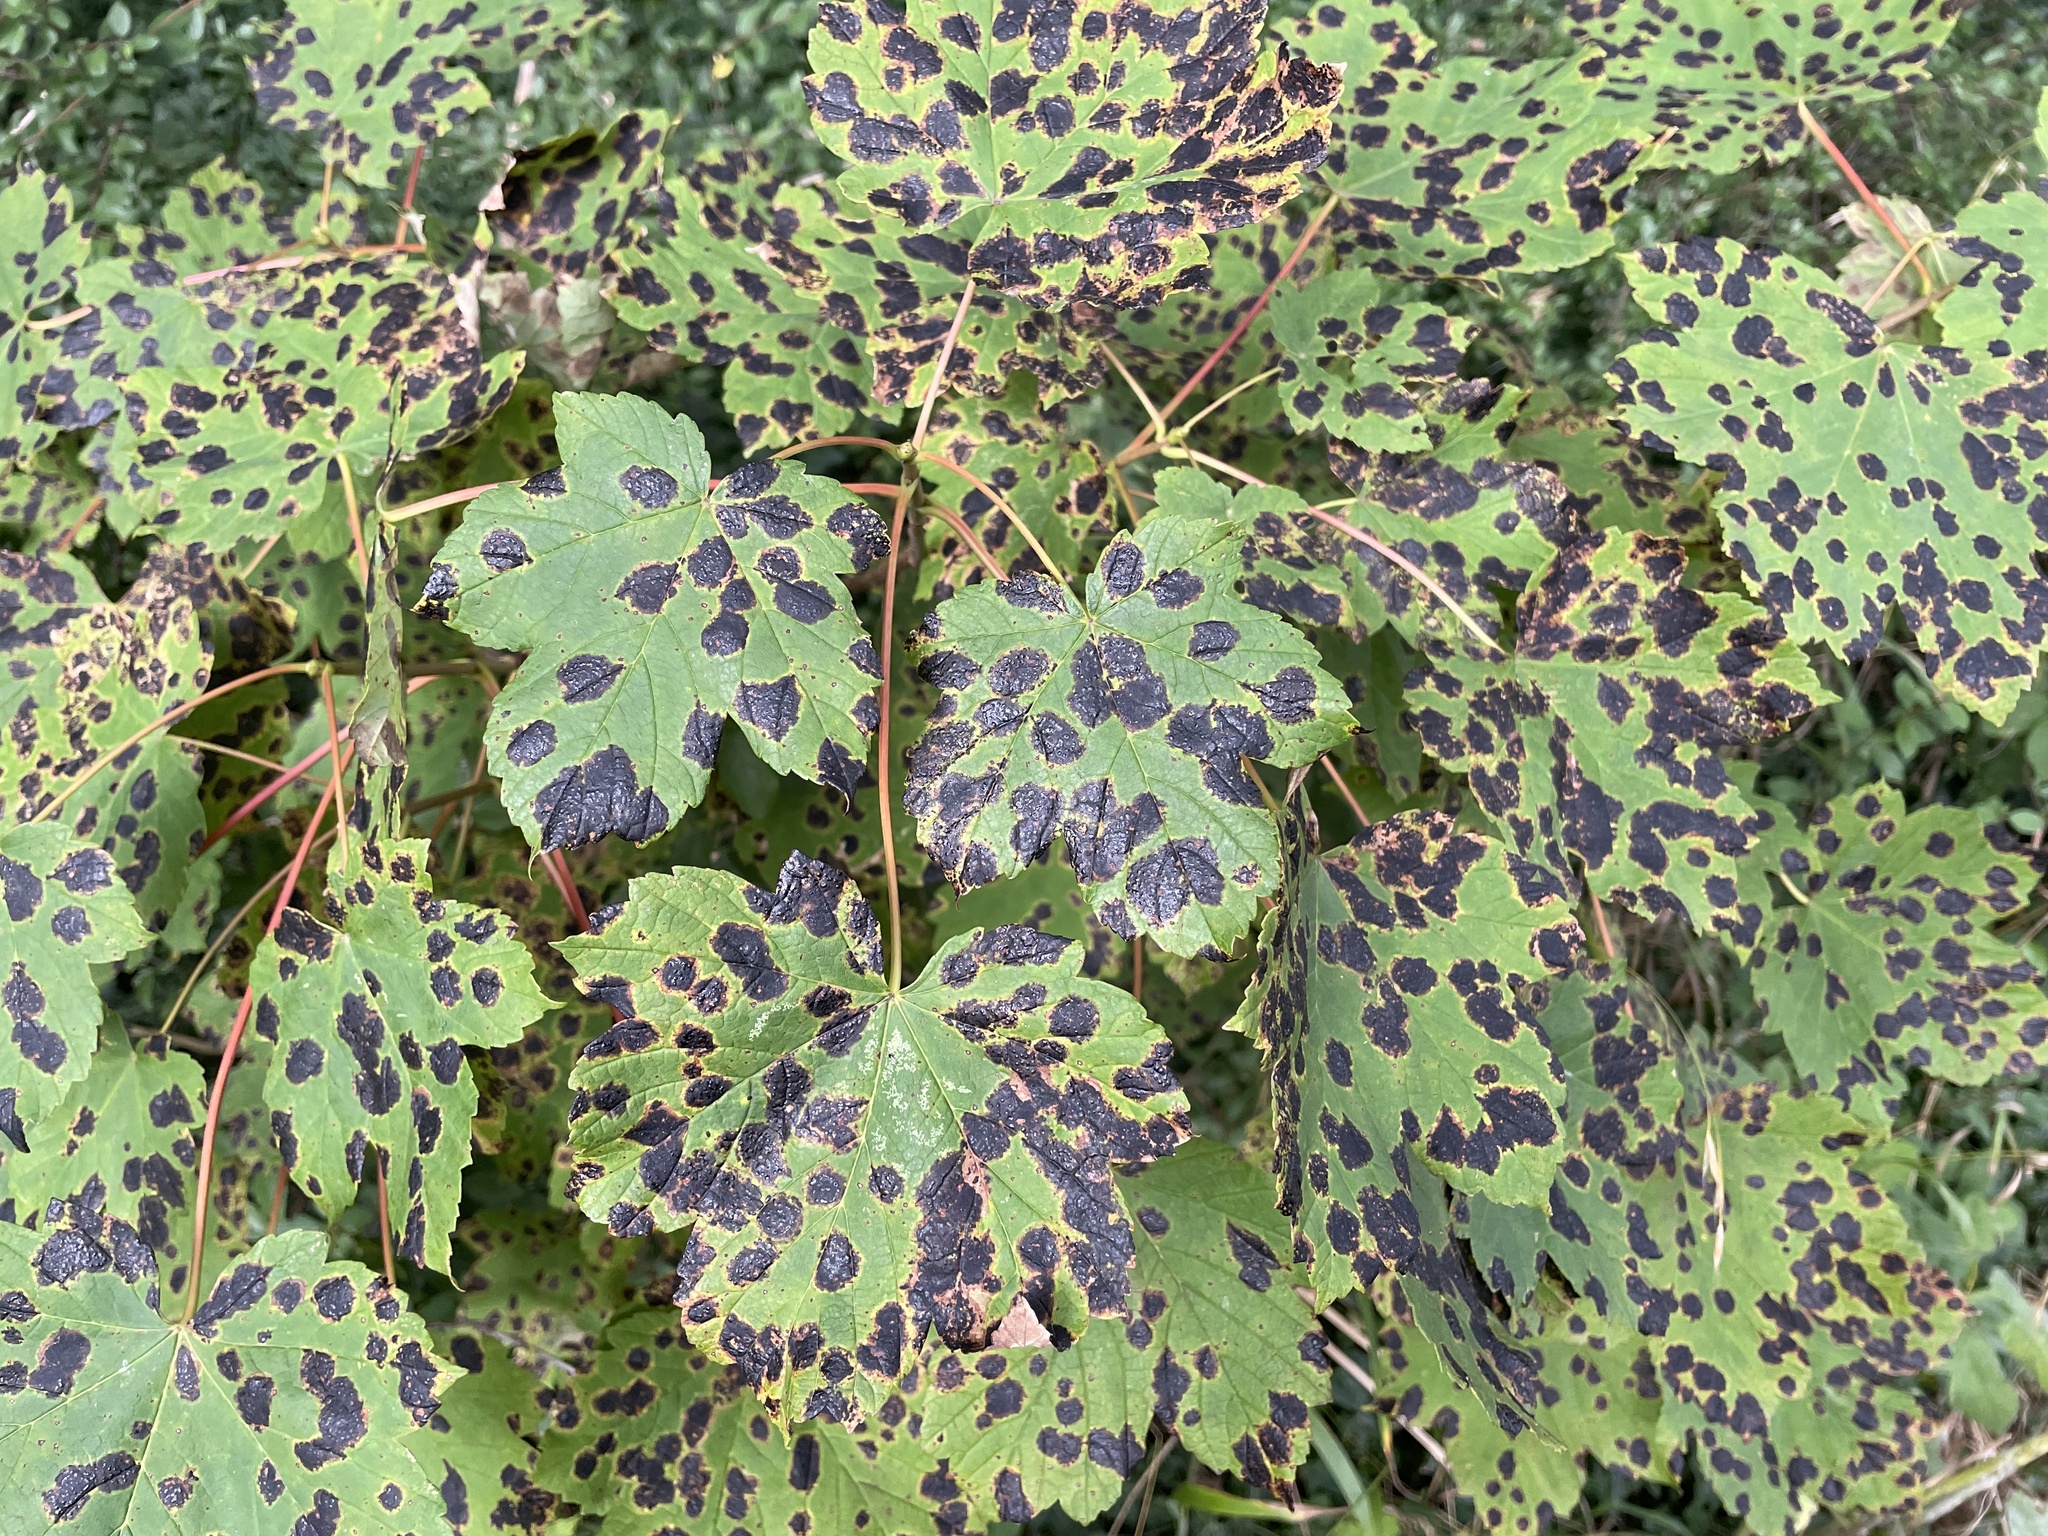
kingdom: Fungi
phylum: Ascomycota
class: Leotiomycetes
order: Rhytismatales
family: Rhytismataceae
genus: Rhytisma
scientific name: Rhytisma acerinum
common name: European tar spot
